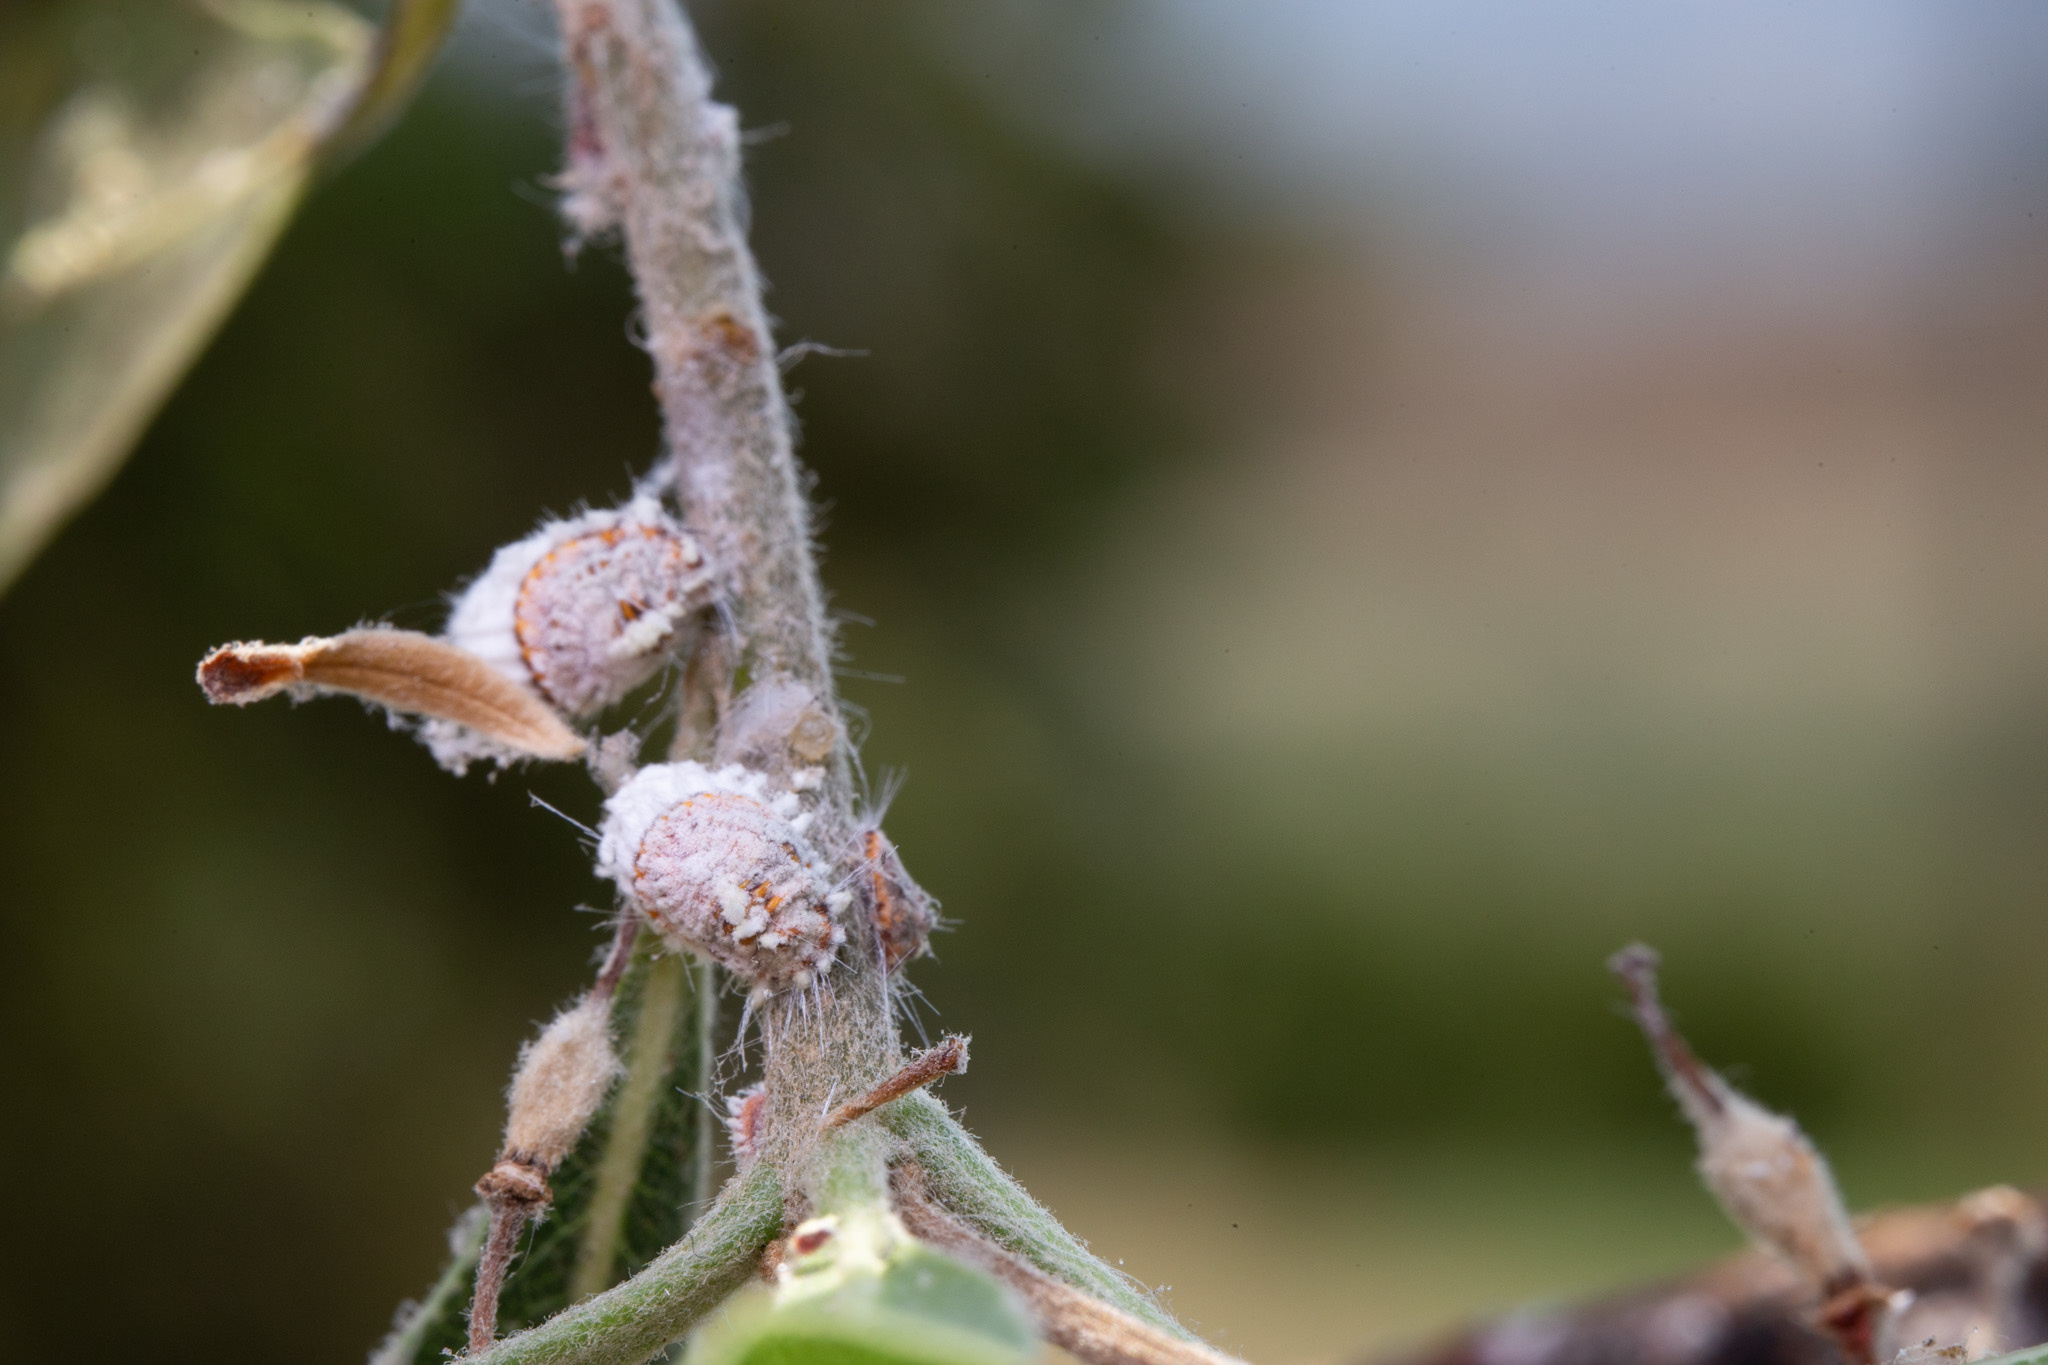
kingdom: Animalia
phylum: Arthropoda
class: Insecta
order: Hemiptera
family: Margarodidae
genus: Icerya
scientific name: Icerya purchasi
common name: Cottony cushion scale
